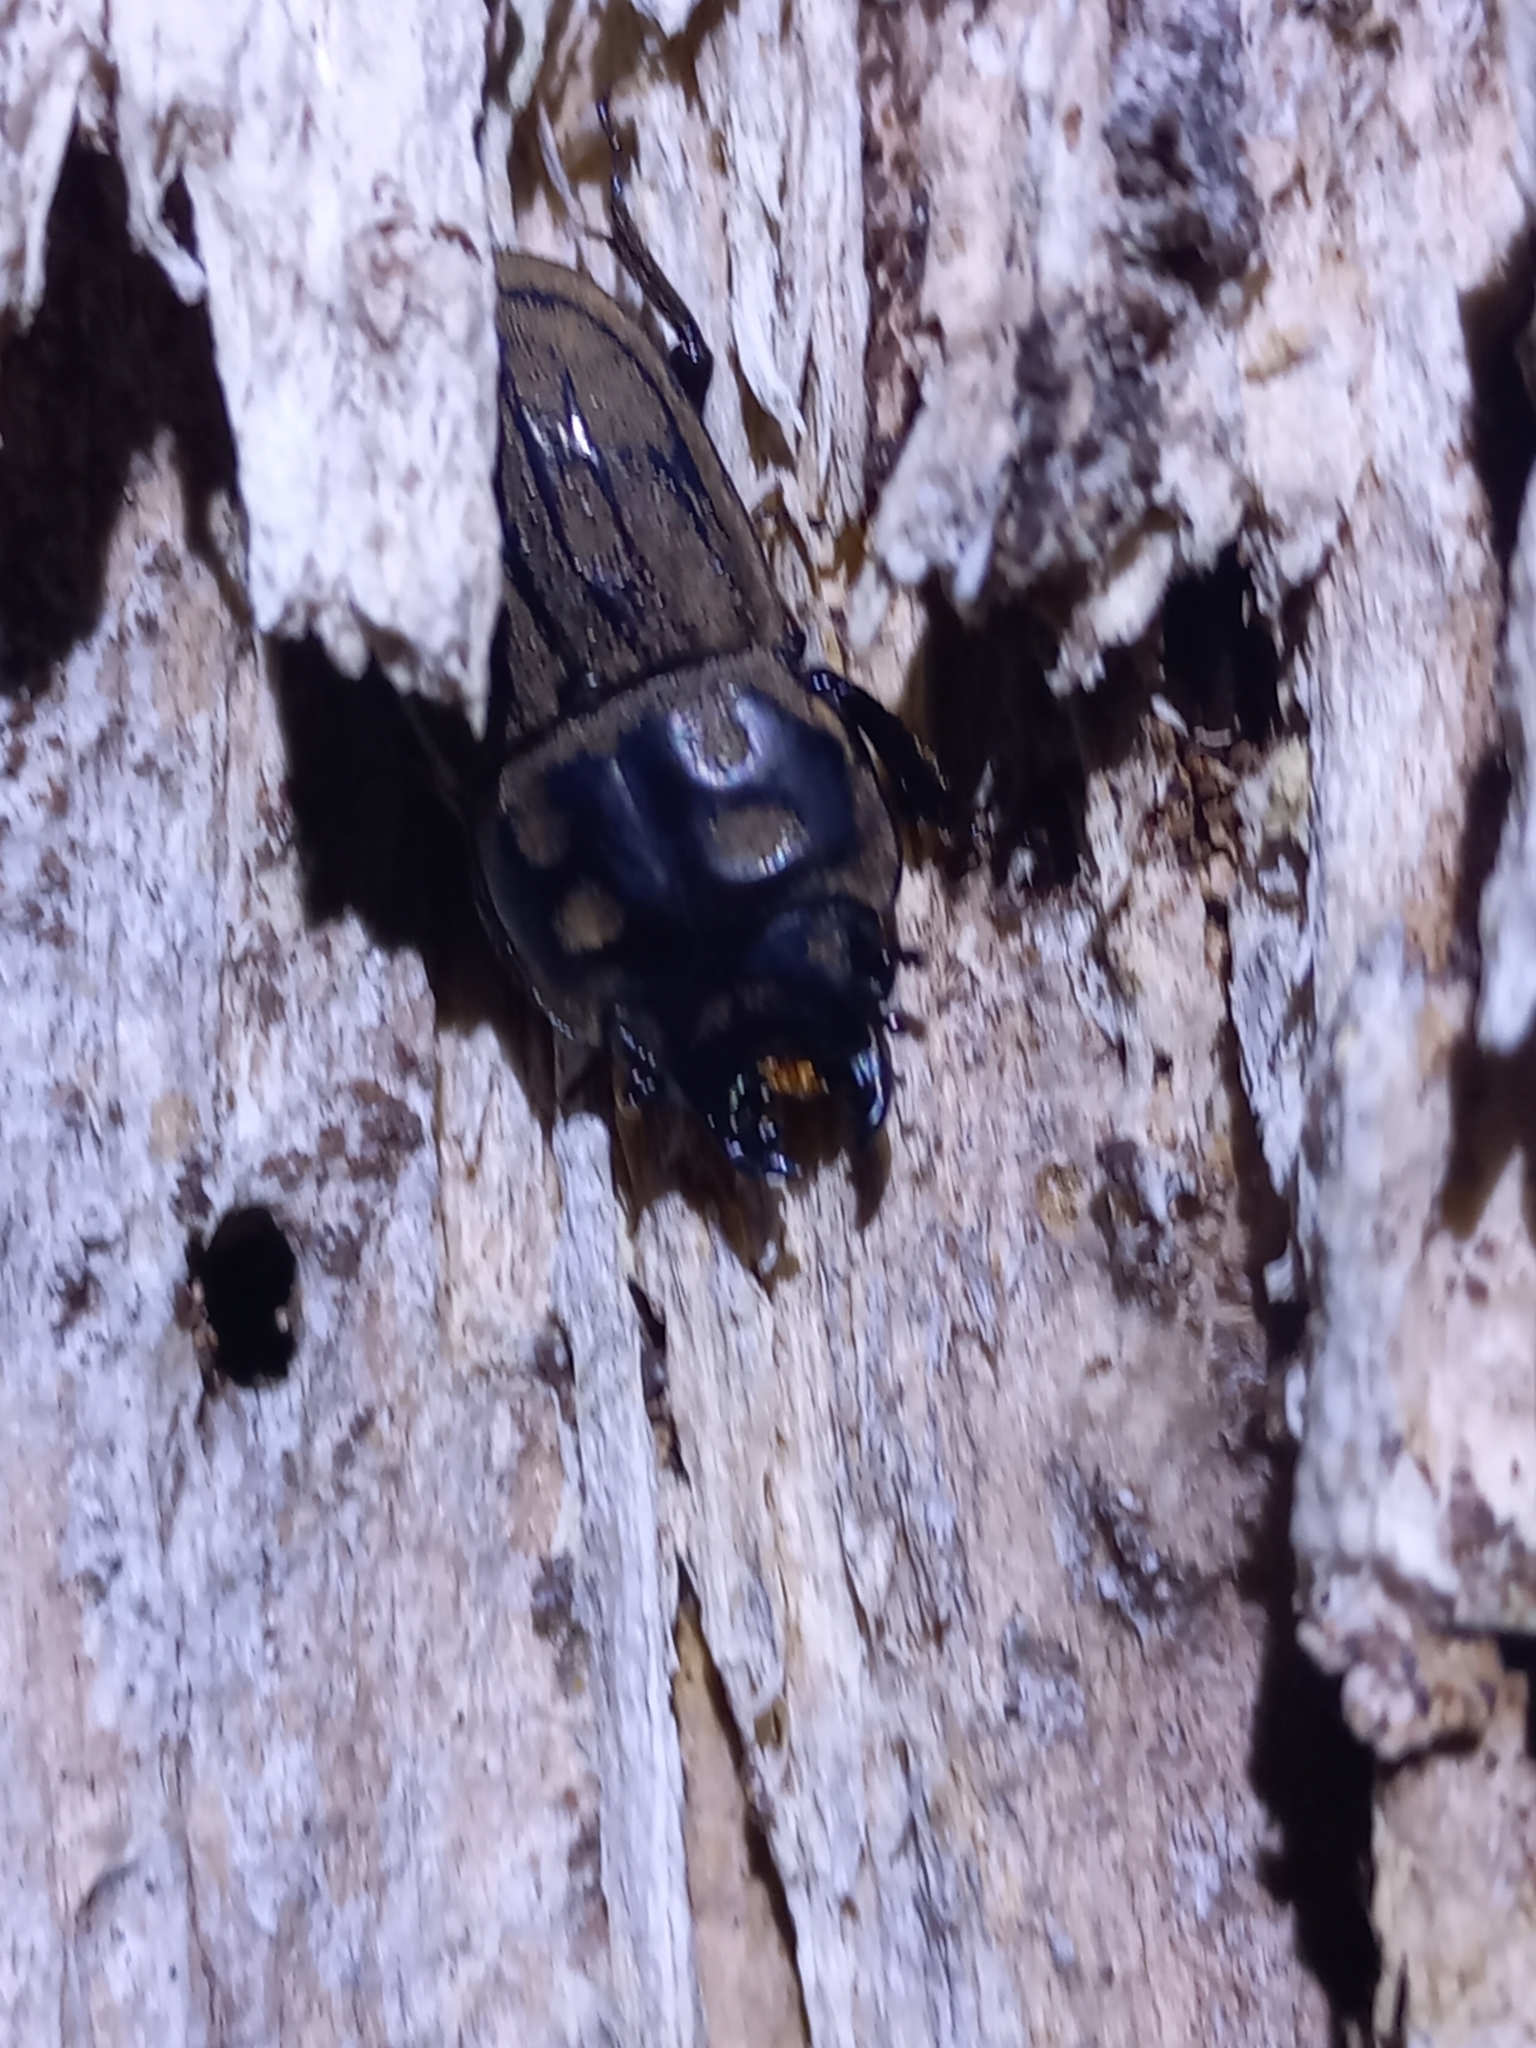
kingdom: Animalia
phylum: Arthropoda
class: Insecta
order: Coleoptera
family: Lucanidae
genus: Paralissotes
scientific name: Paralissotes reticulatus
